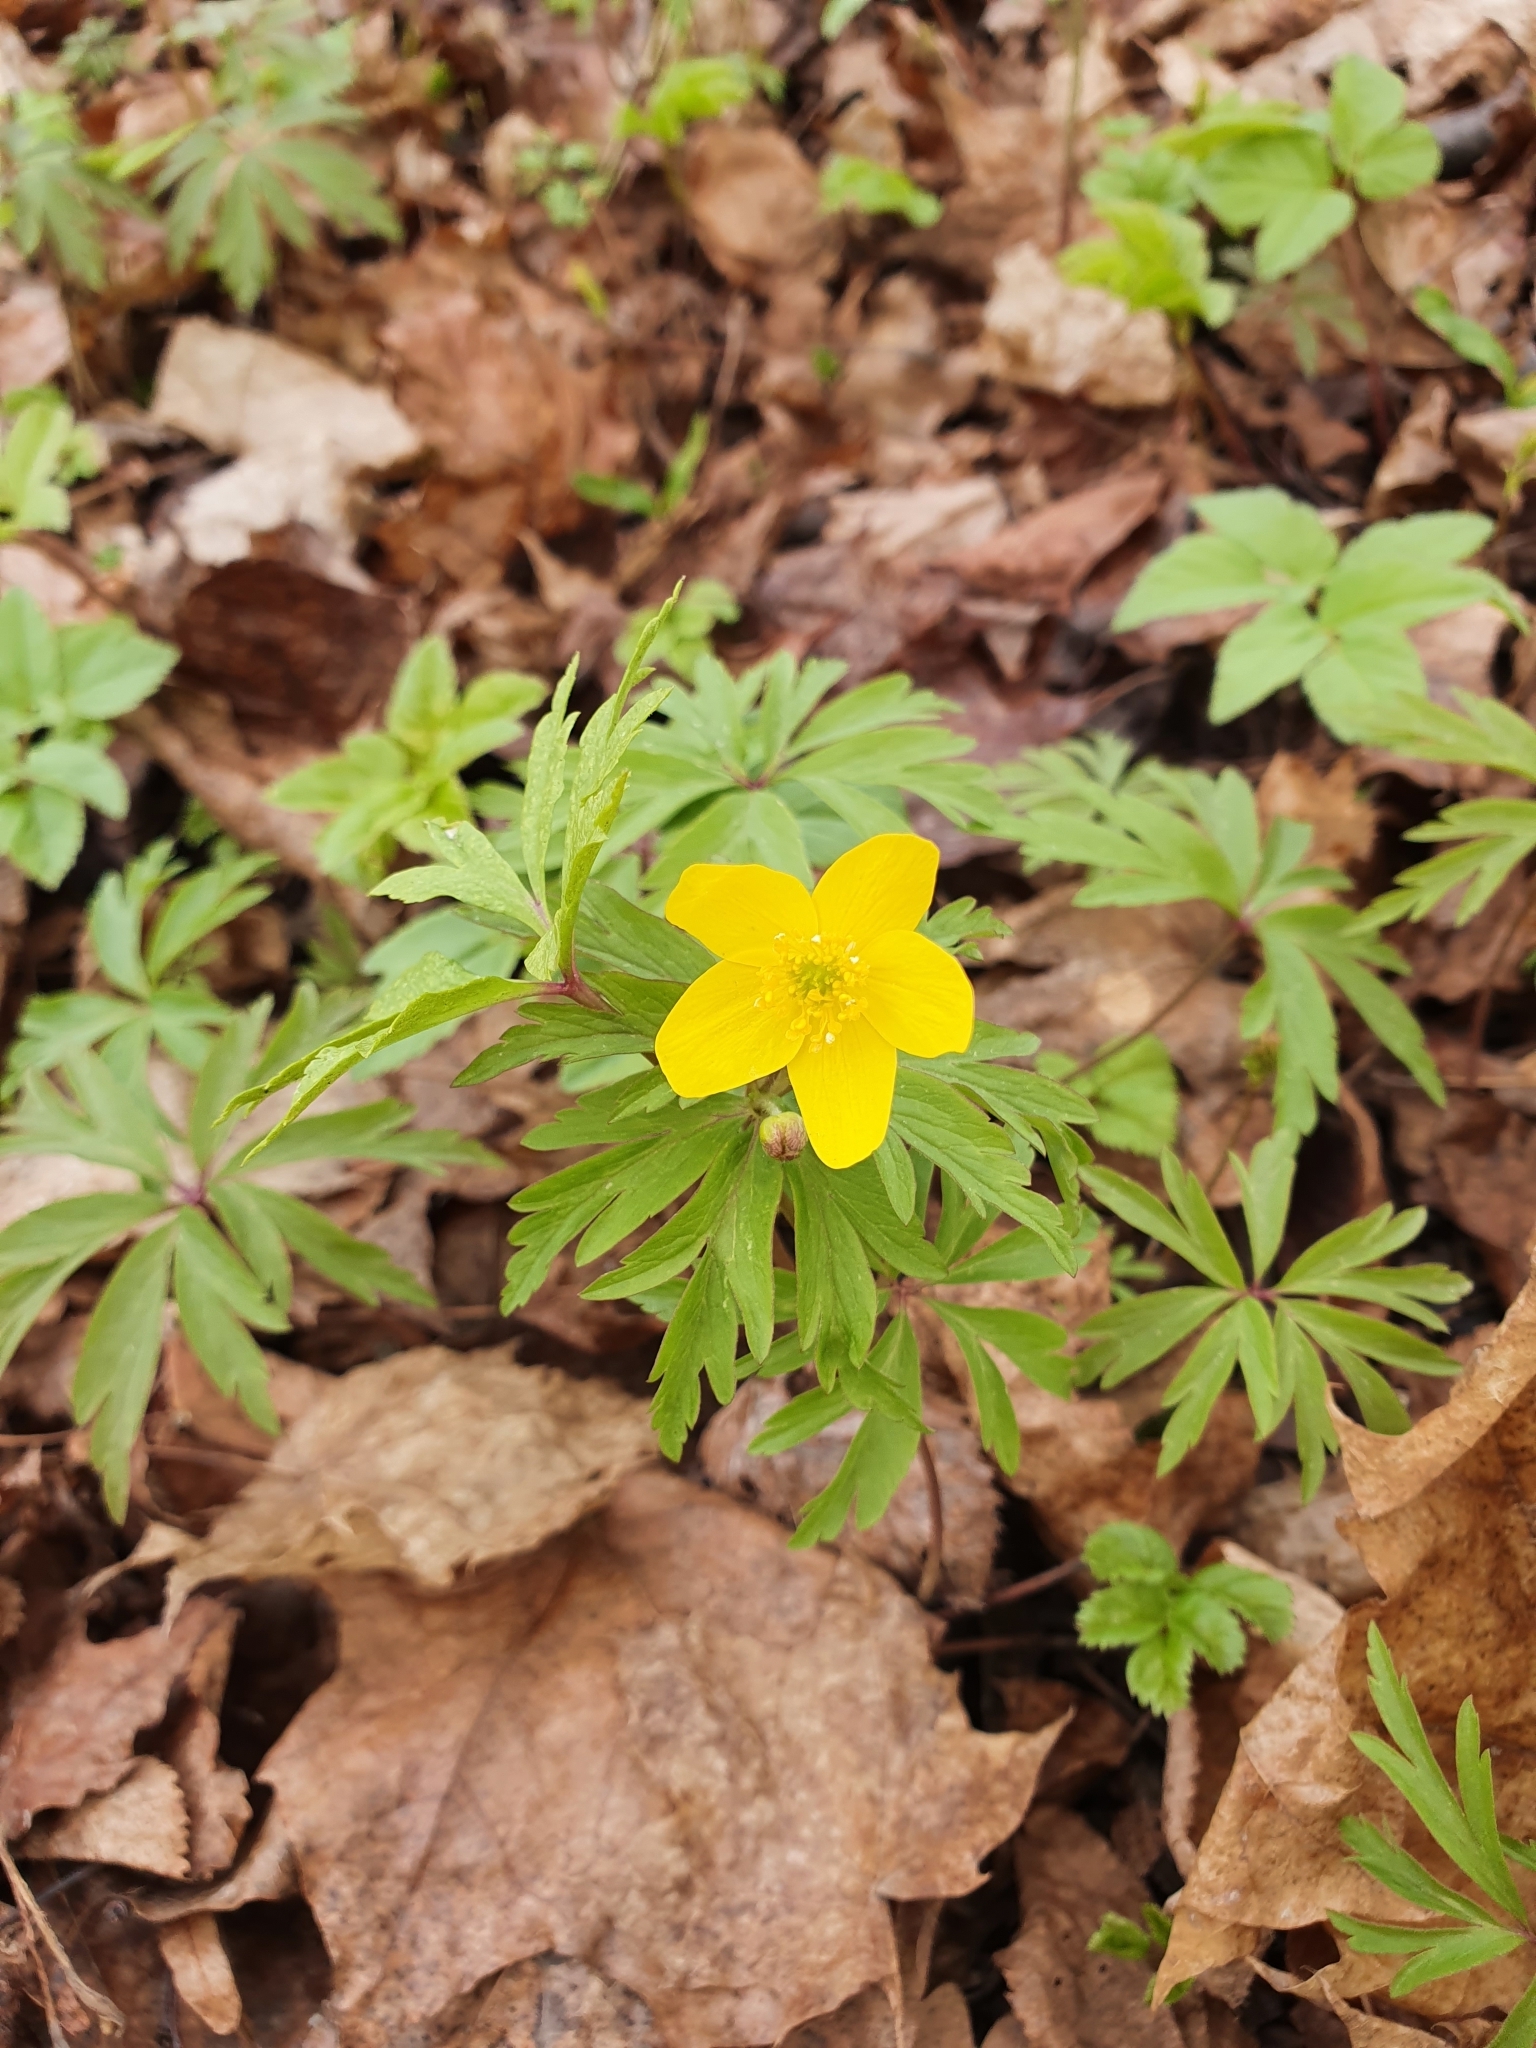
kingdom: Plantae
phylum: Tracheophyta
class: Magnoliopsida
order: Ranunculales
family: Ranunculaceae
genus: Anemone
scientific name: Anemone ranunculoides
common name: Yellow anemone
